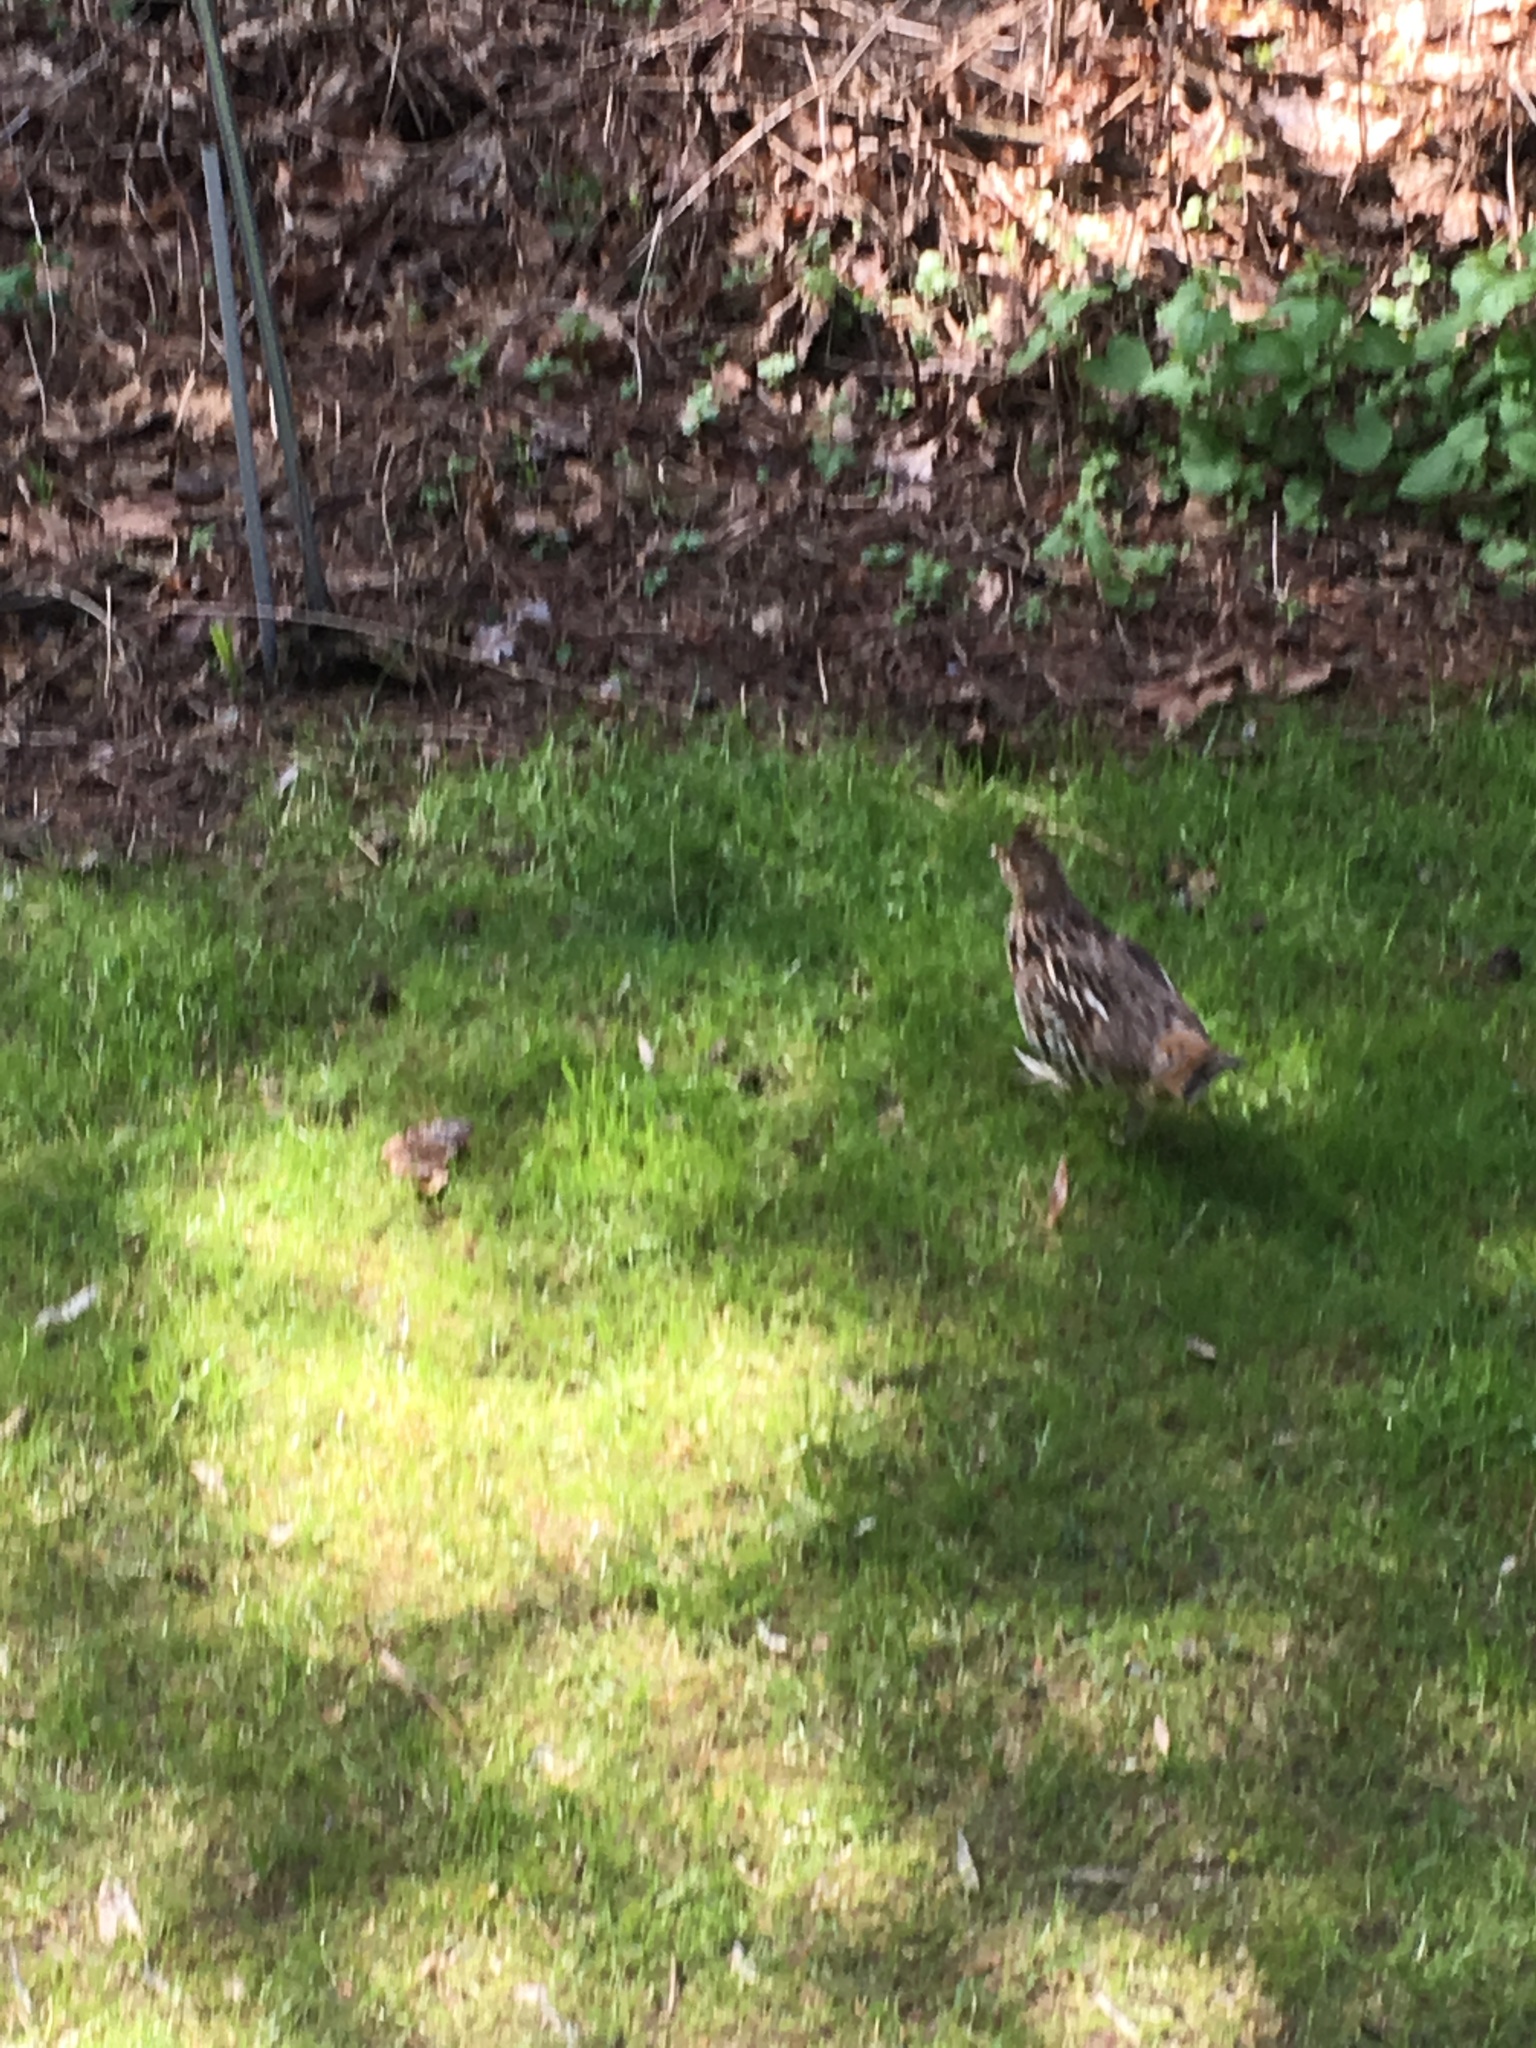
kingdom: Animalia
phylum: Chordata
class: Aves
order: Galliformes
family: Phasianidae
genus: Bonasa
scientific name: Bonasa umbellus
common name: Ruffed grouse
